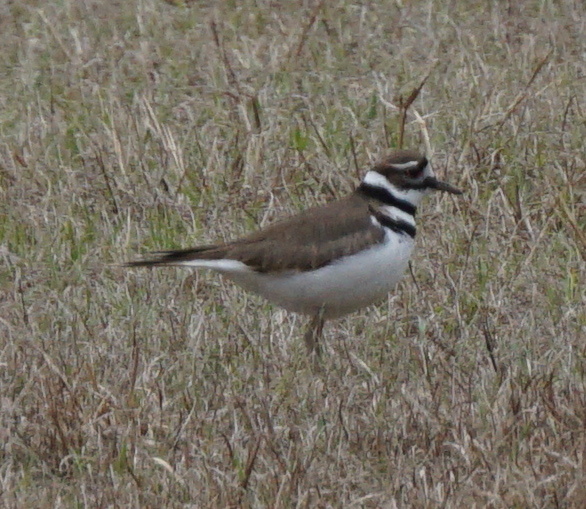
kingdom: Animalia
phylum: Chordata
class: Aves
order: Charadriiformes
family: Charadriidae
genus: Charadrius
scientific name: Charadrius vociferus
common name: Killdeer
